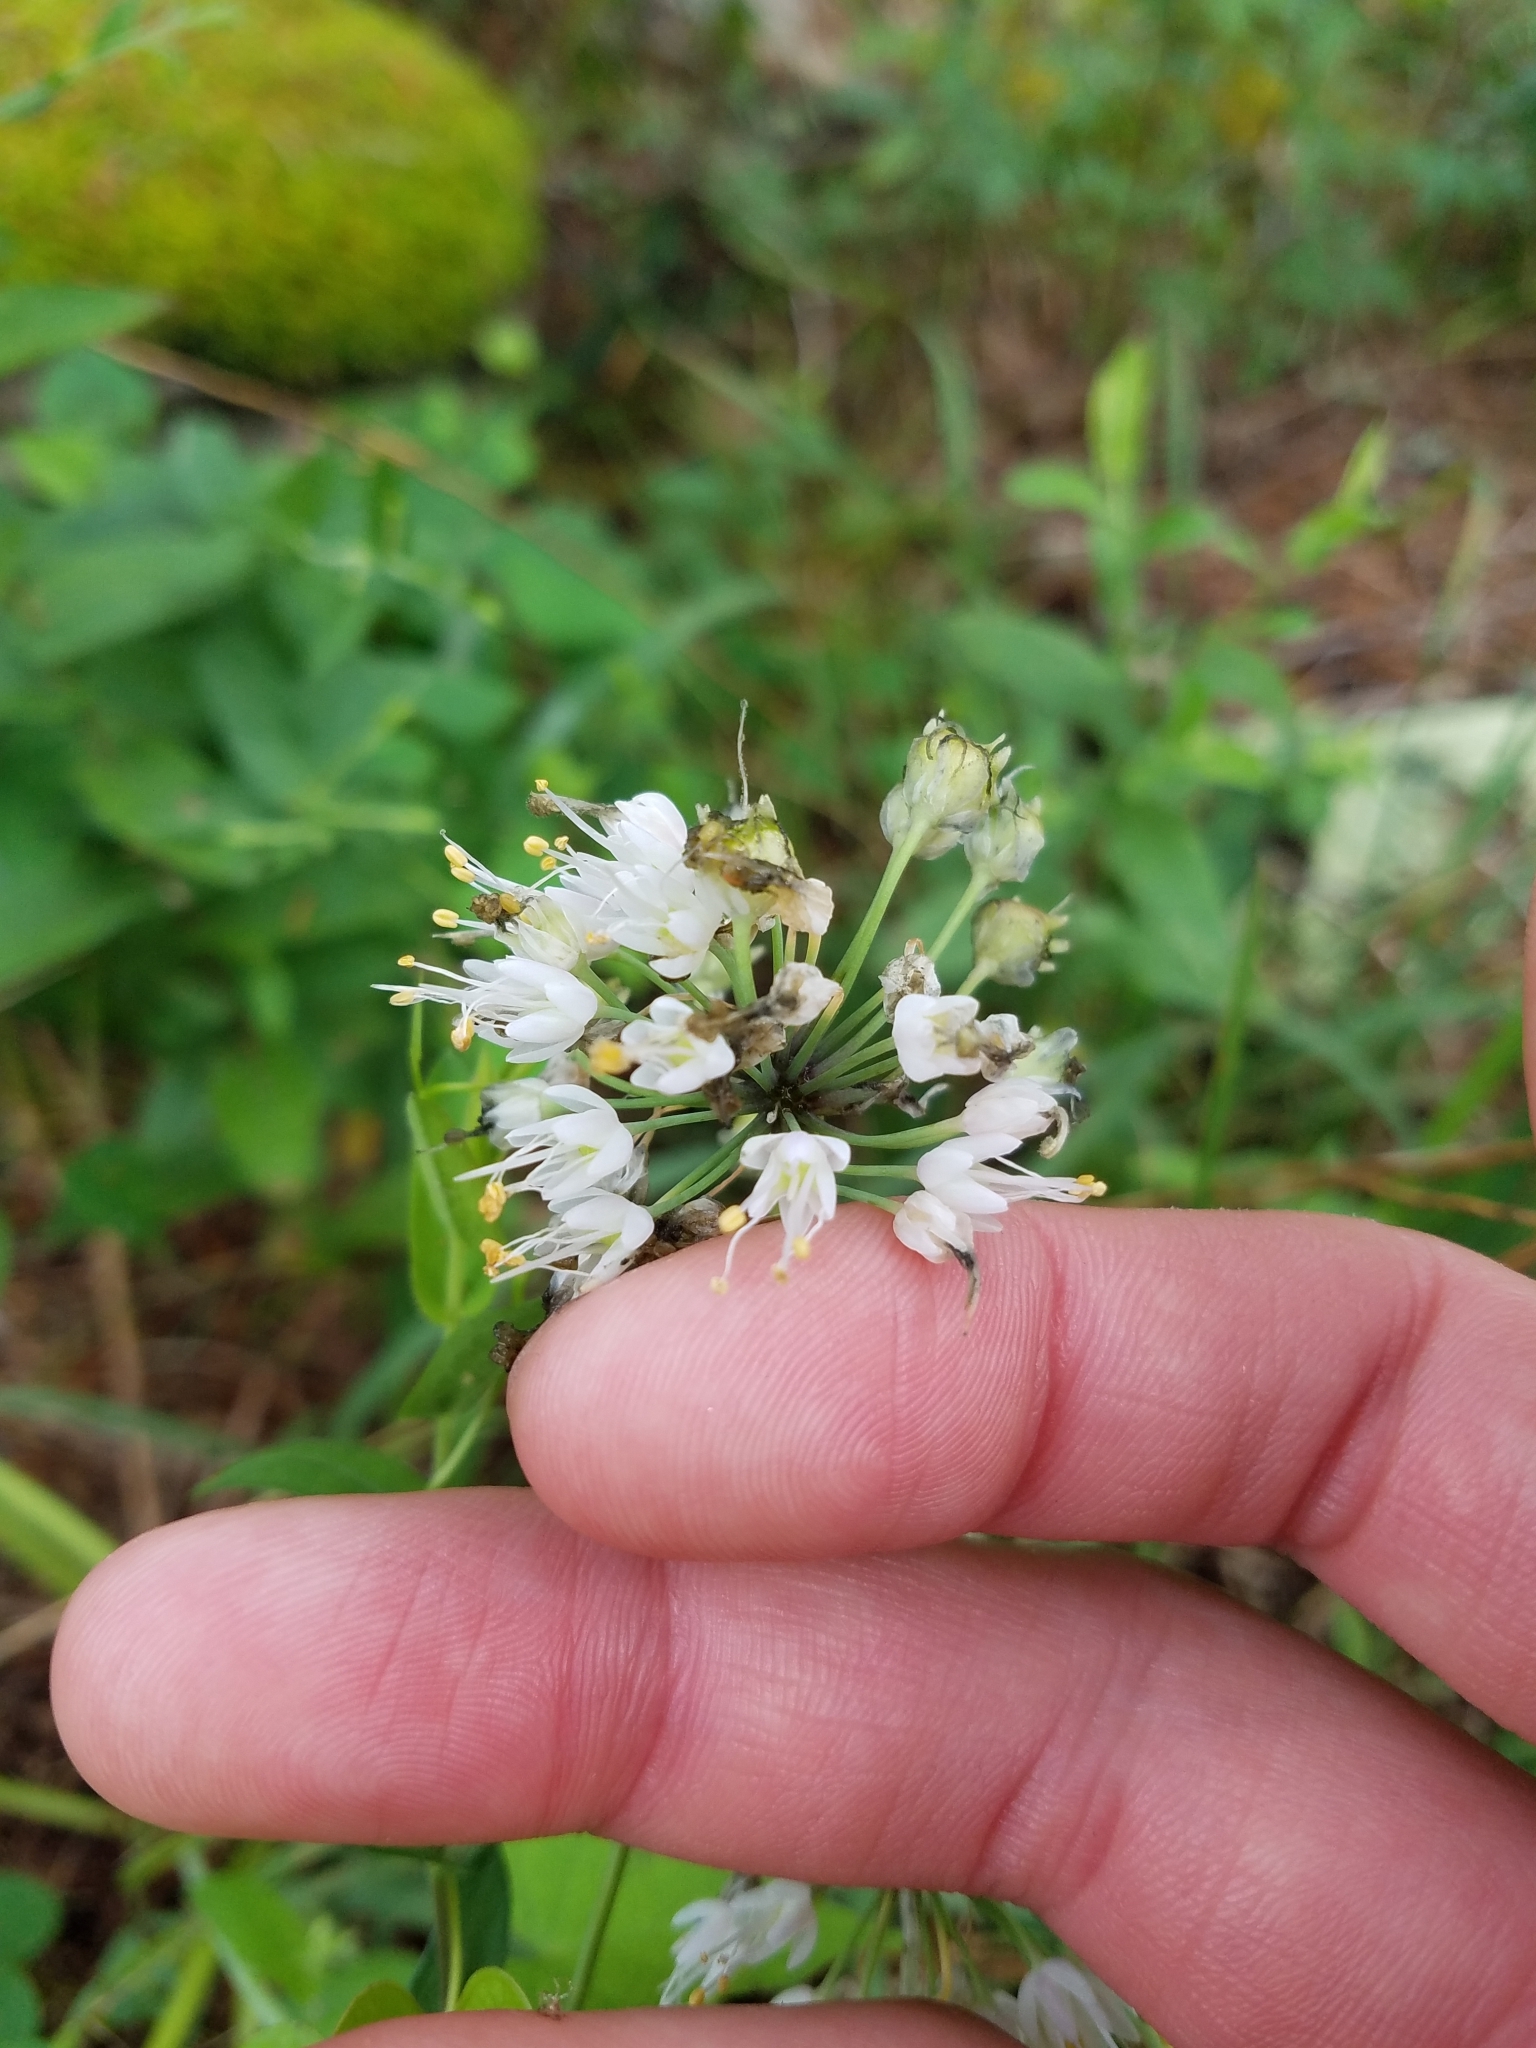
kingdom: Plantae
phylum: Tracheophyta
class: Liliopsida
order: Asparagales
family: Amaryllidaceae
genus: Allium
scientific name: Allium cernuum
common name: Nodding onion
